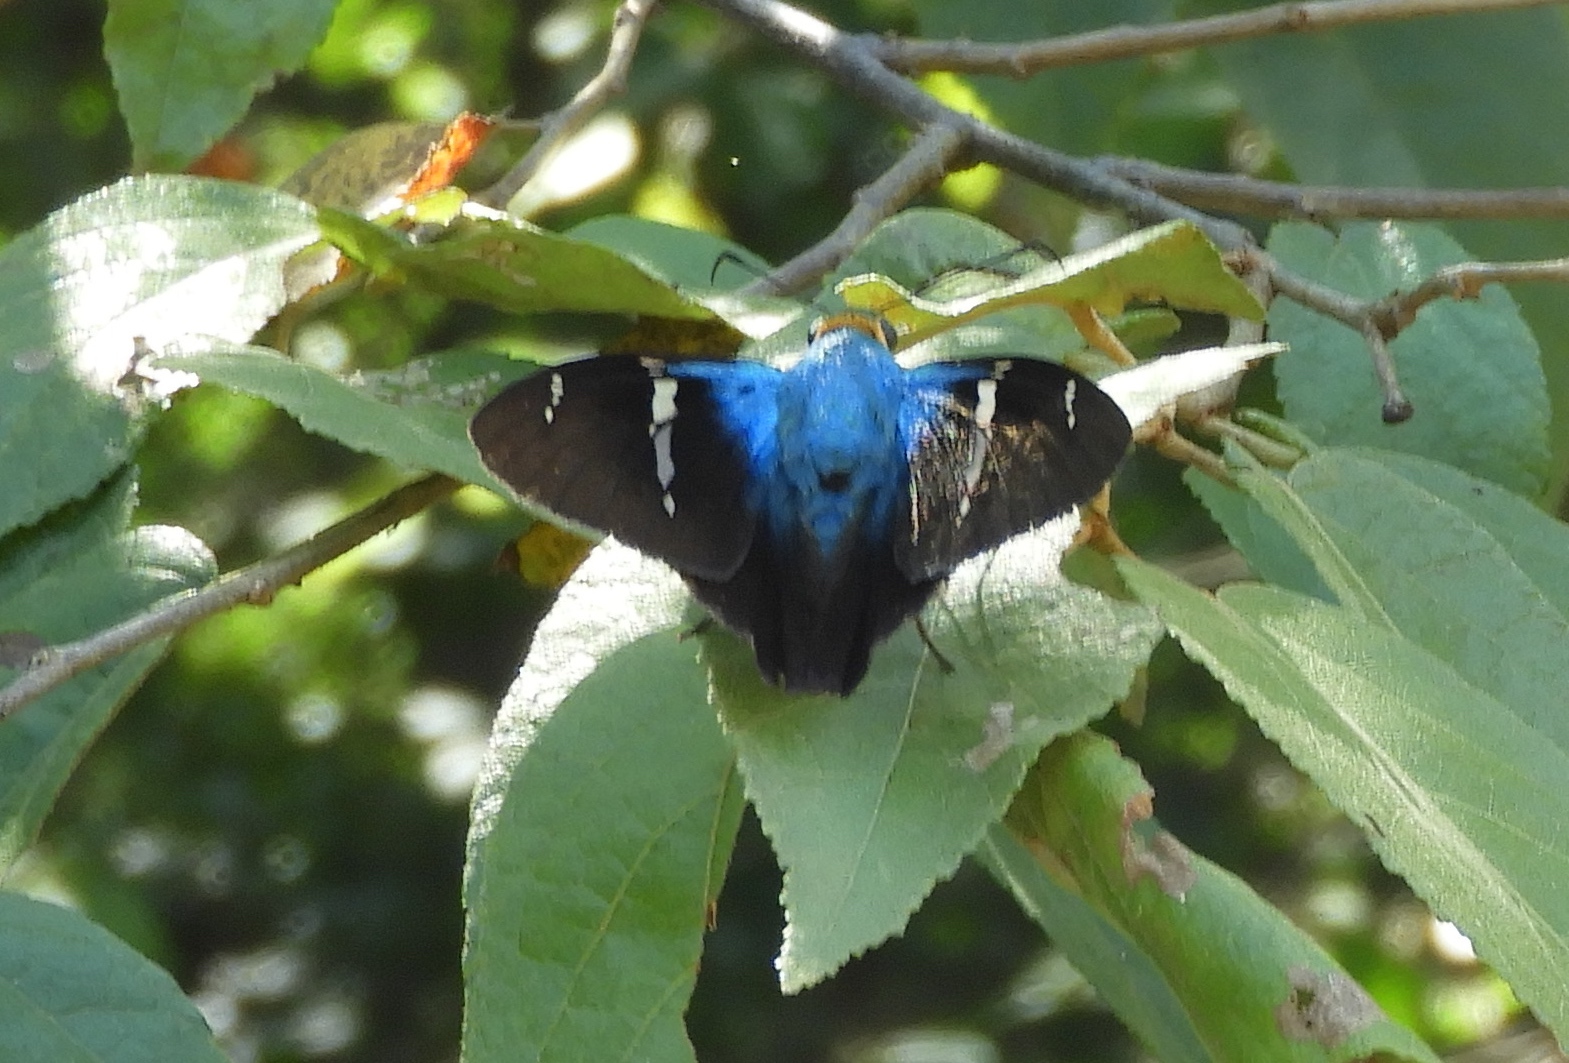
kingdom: Animalia
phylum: Arthropoda
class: Insecta
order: Lepidoptera
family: Hesperiidae
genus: Astraptes
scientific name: Astraptes fulgerator
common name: Two-barred flasher
